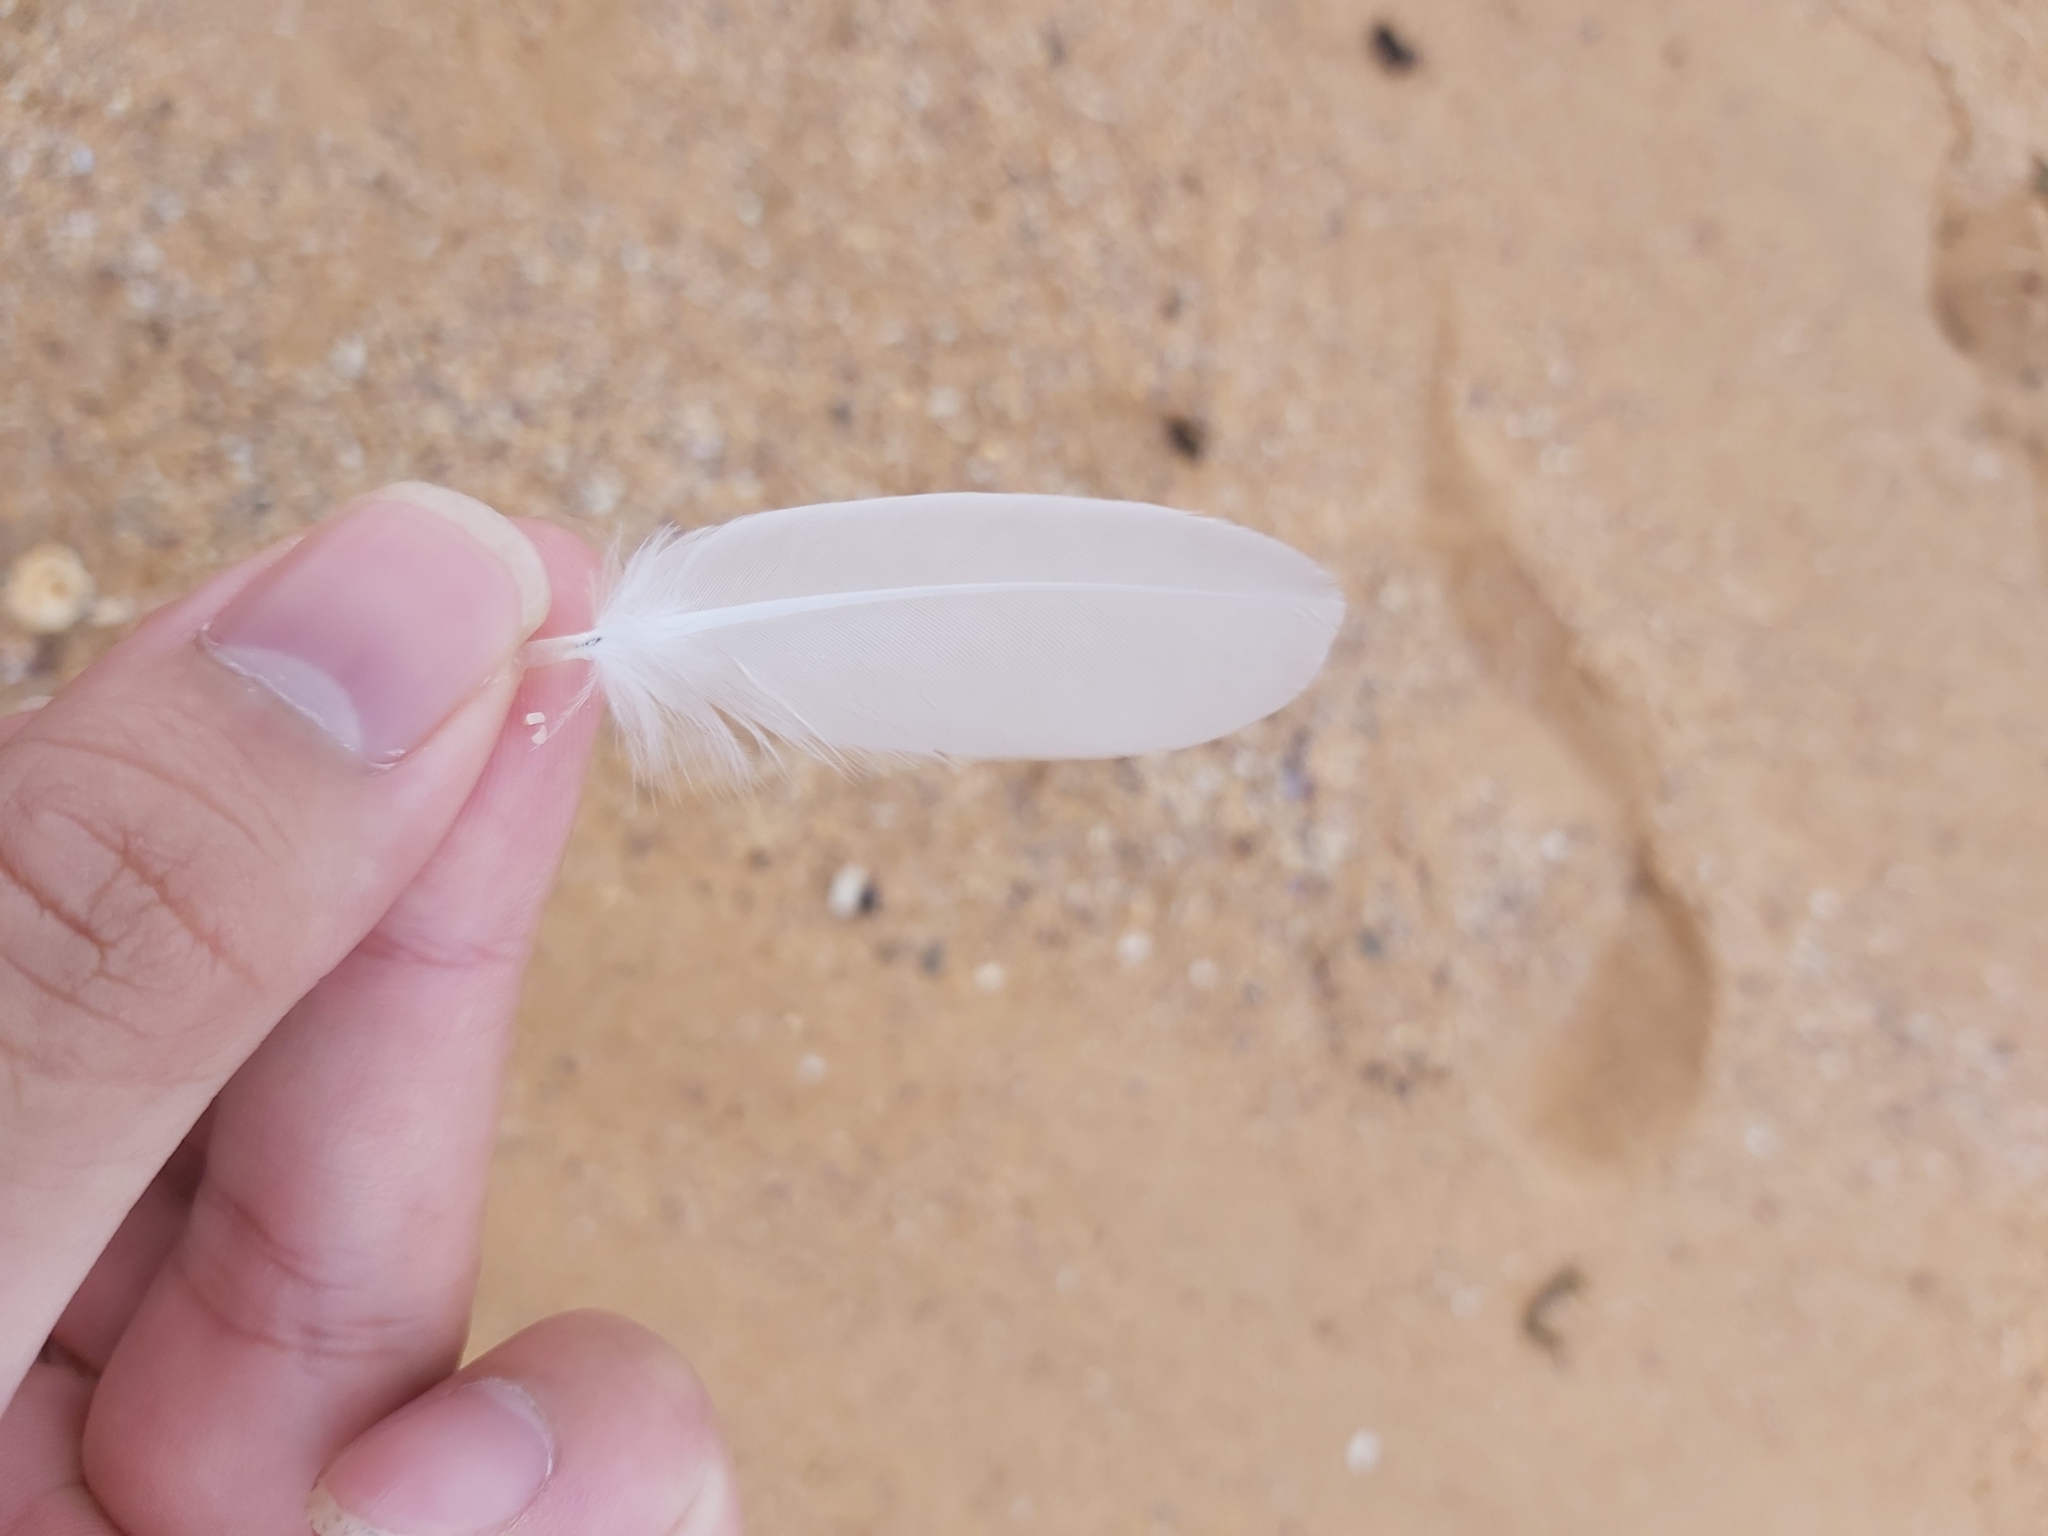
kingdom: Animalia
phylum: Chordata
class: Aves
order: Charadriiformes
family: Laridae
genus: Chroicocephalus
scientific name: Chroicocephalus novaehollandiae
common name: Silver gull
